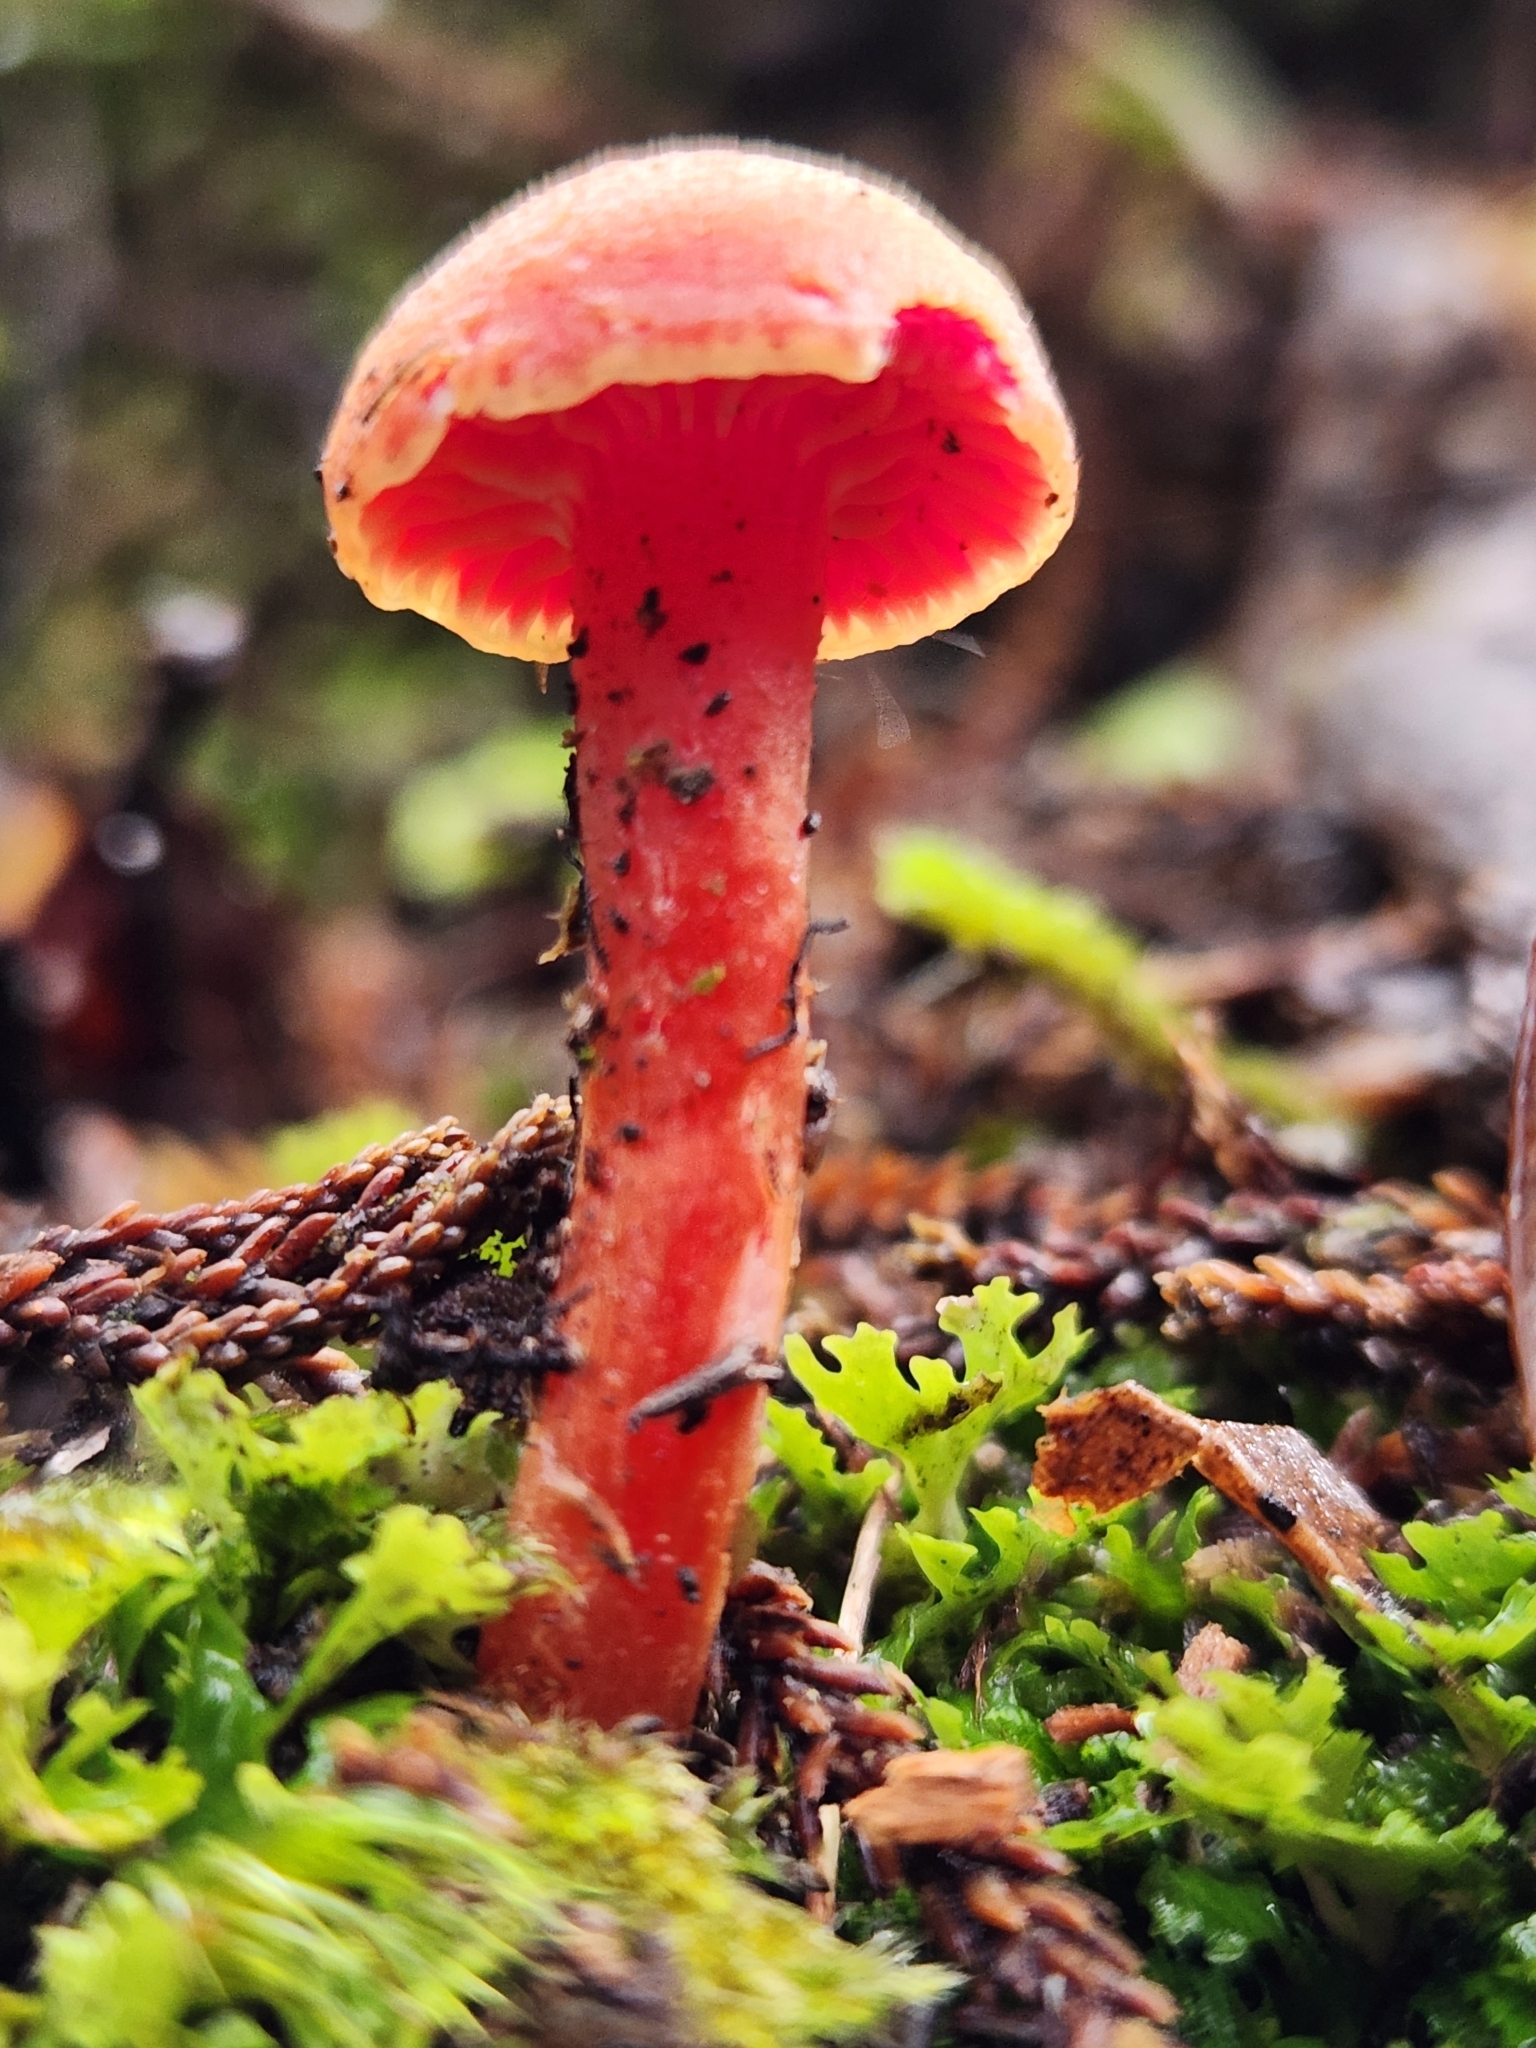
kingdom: Fungi
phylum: Basidiomycota
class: Agaricomycetes
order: Agaricales
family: Hygrophoraceae
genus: Hygrocybe
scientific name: Hygrocybe rubrocarnosa
